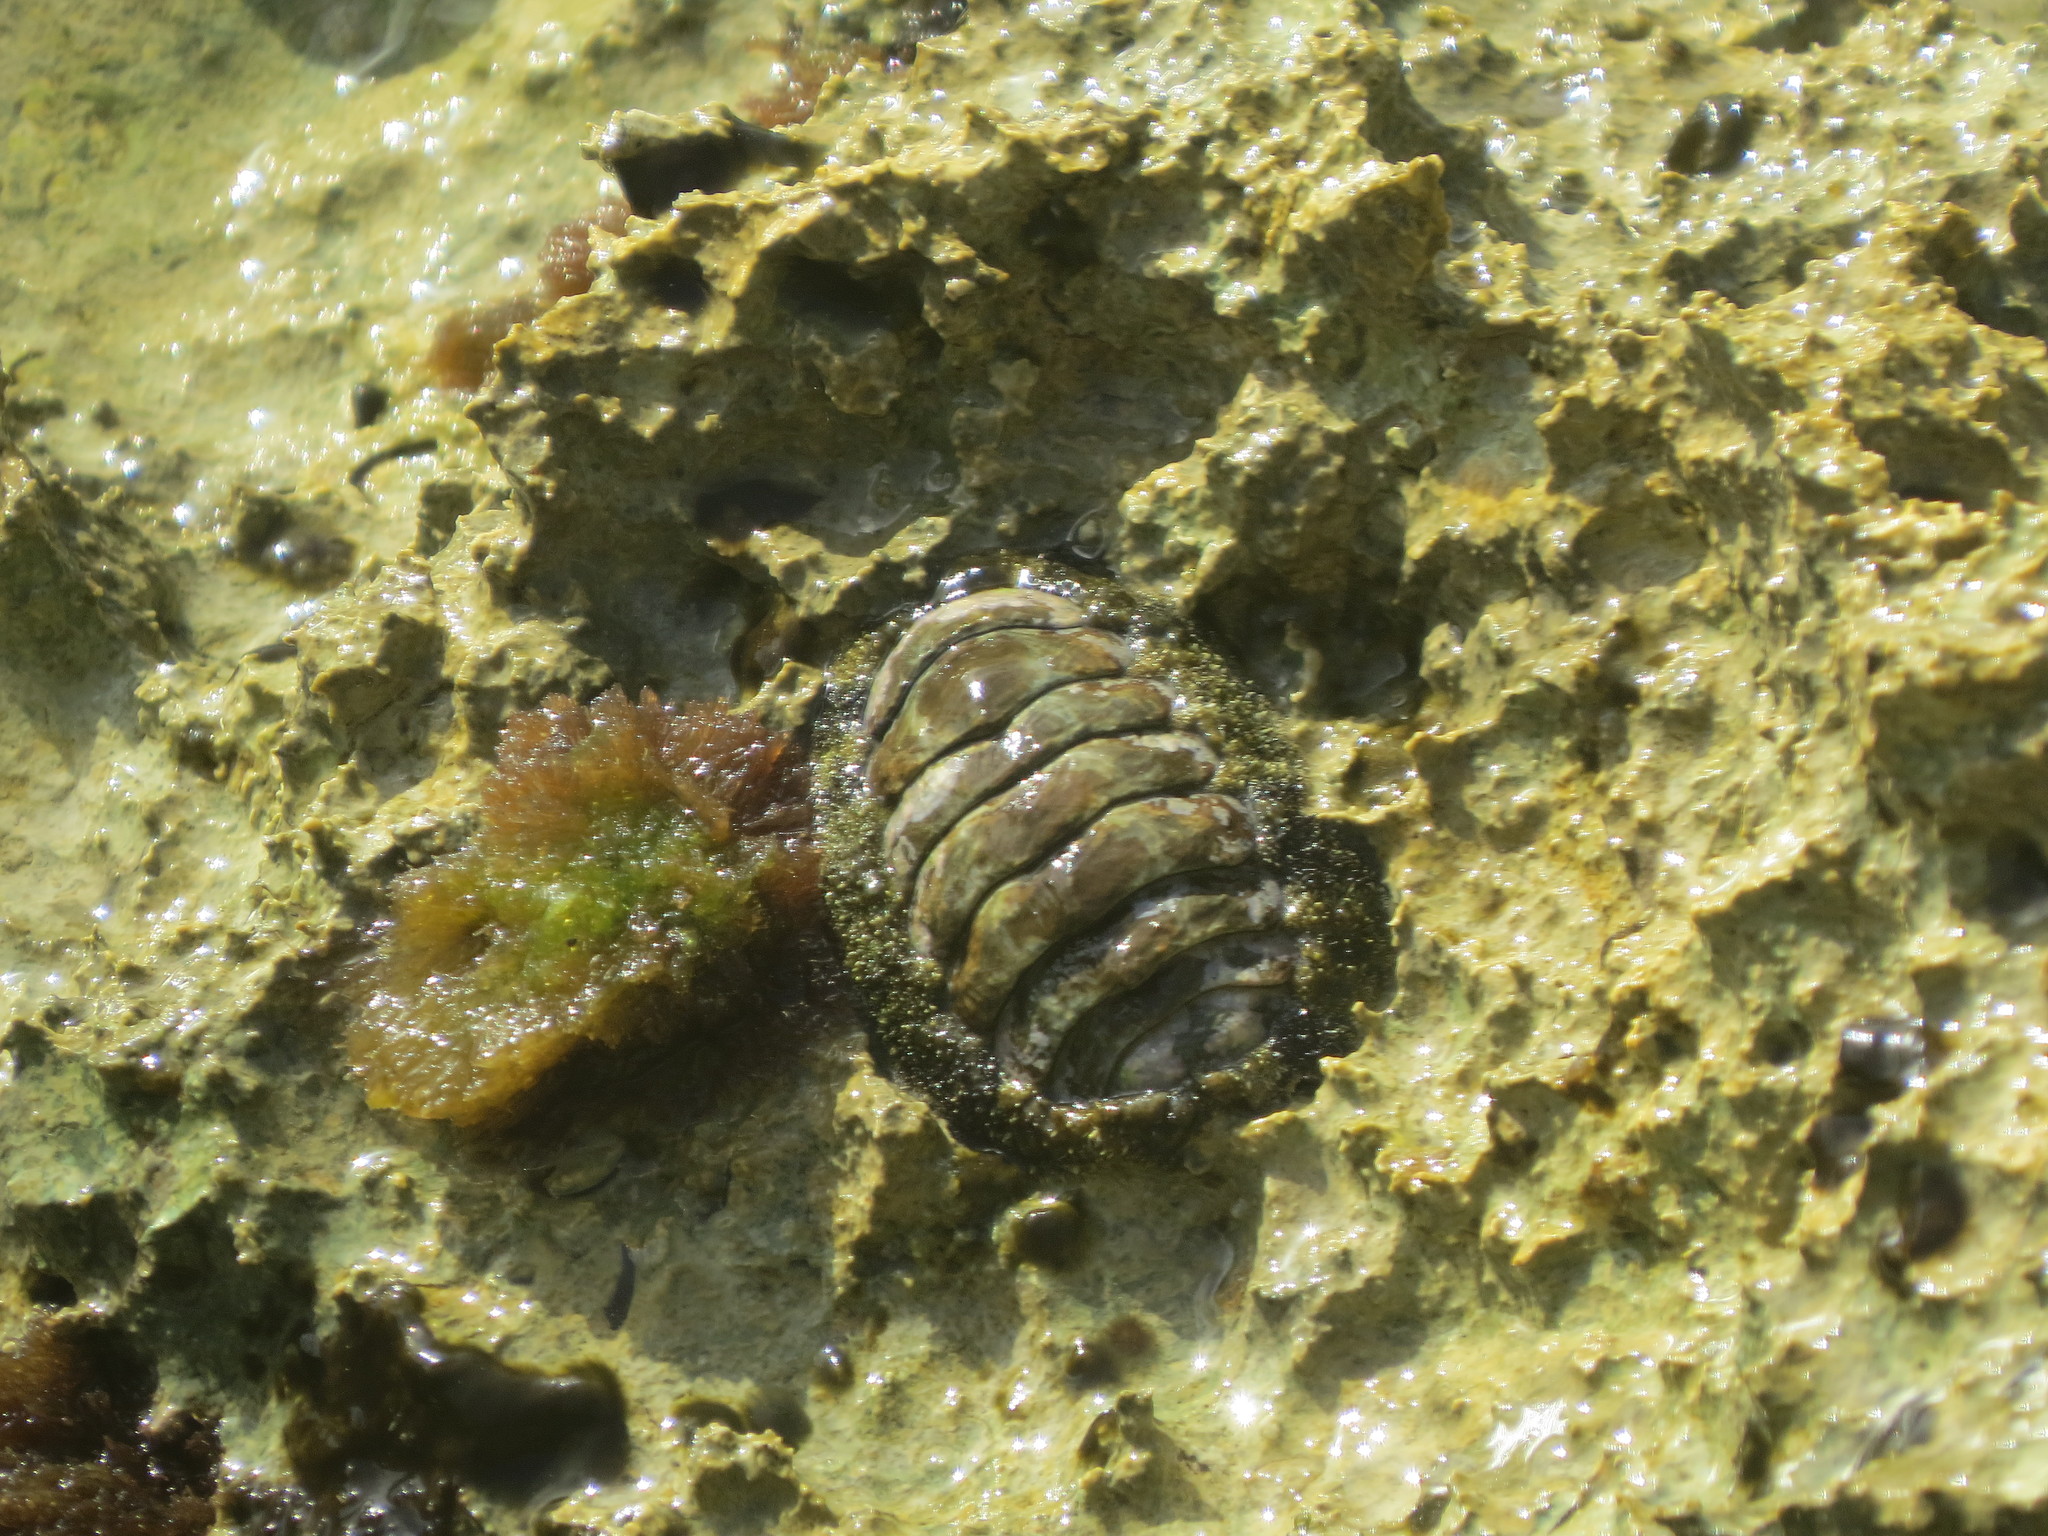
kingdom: Animalia
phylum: Mollusca
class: Polyplacophora
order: Chitonida
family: Chitonidae
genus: Acanthopleura
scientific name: Acanthopleura granulata
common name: West indian fuzzy chiton
